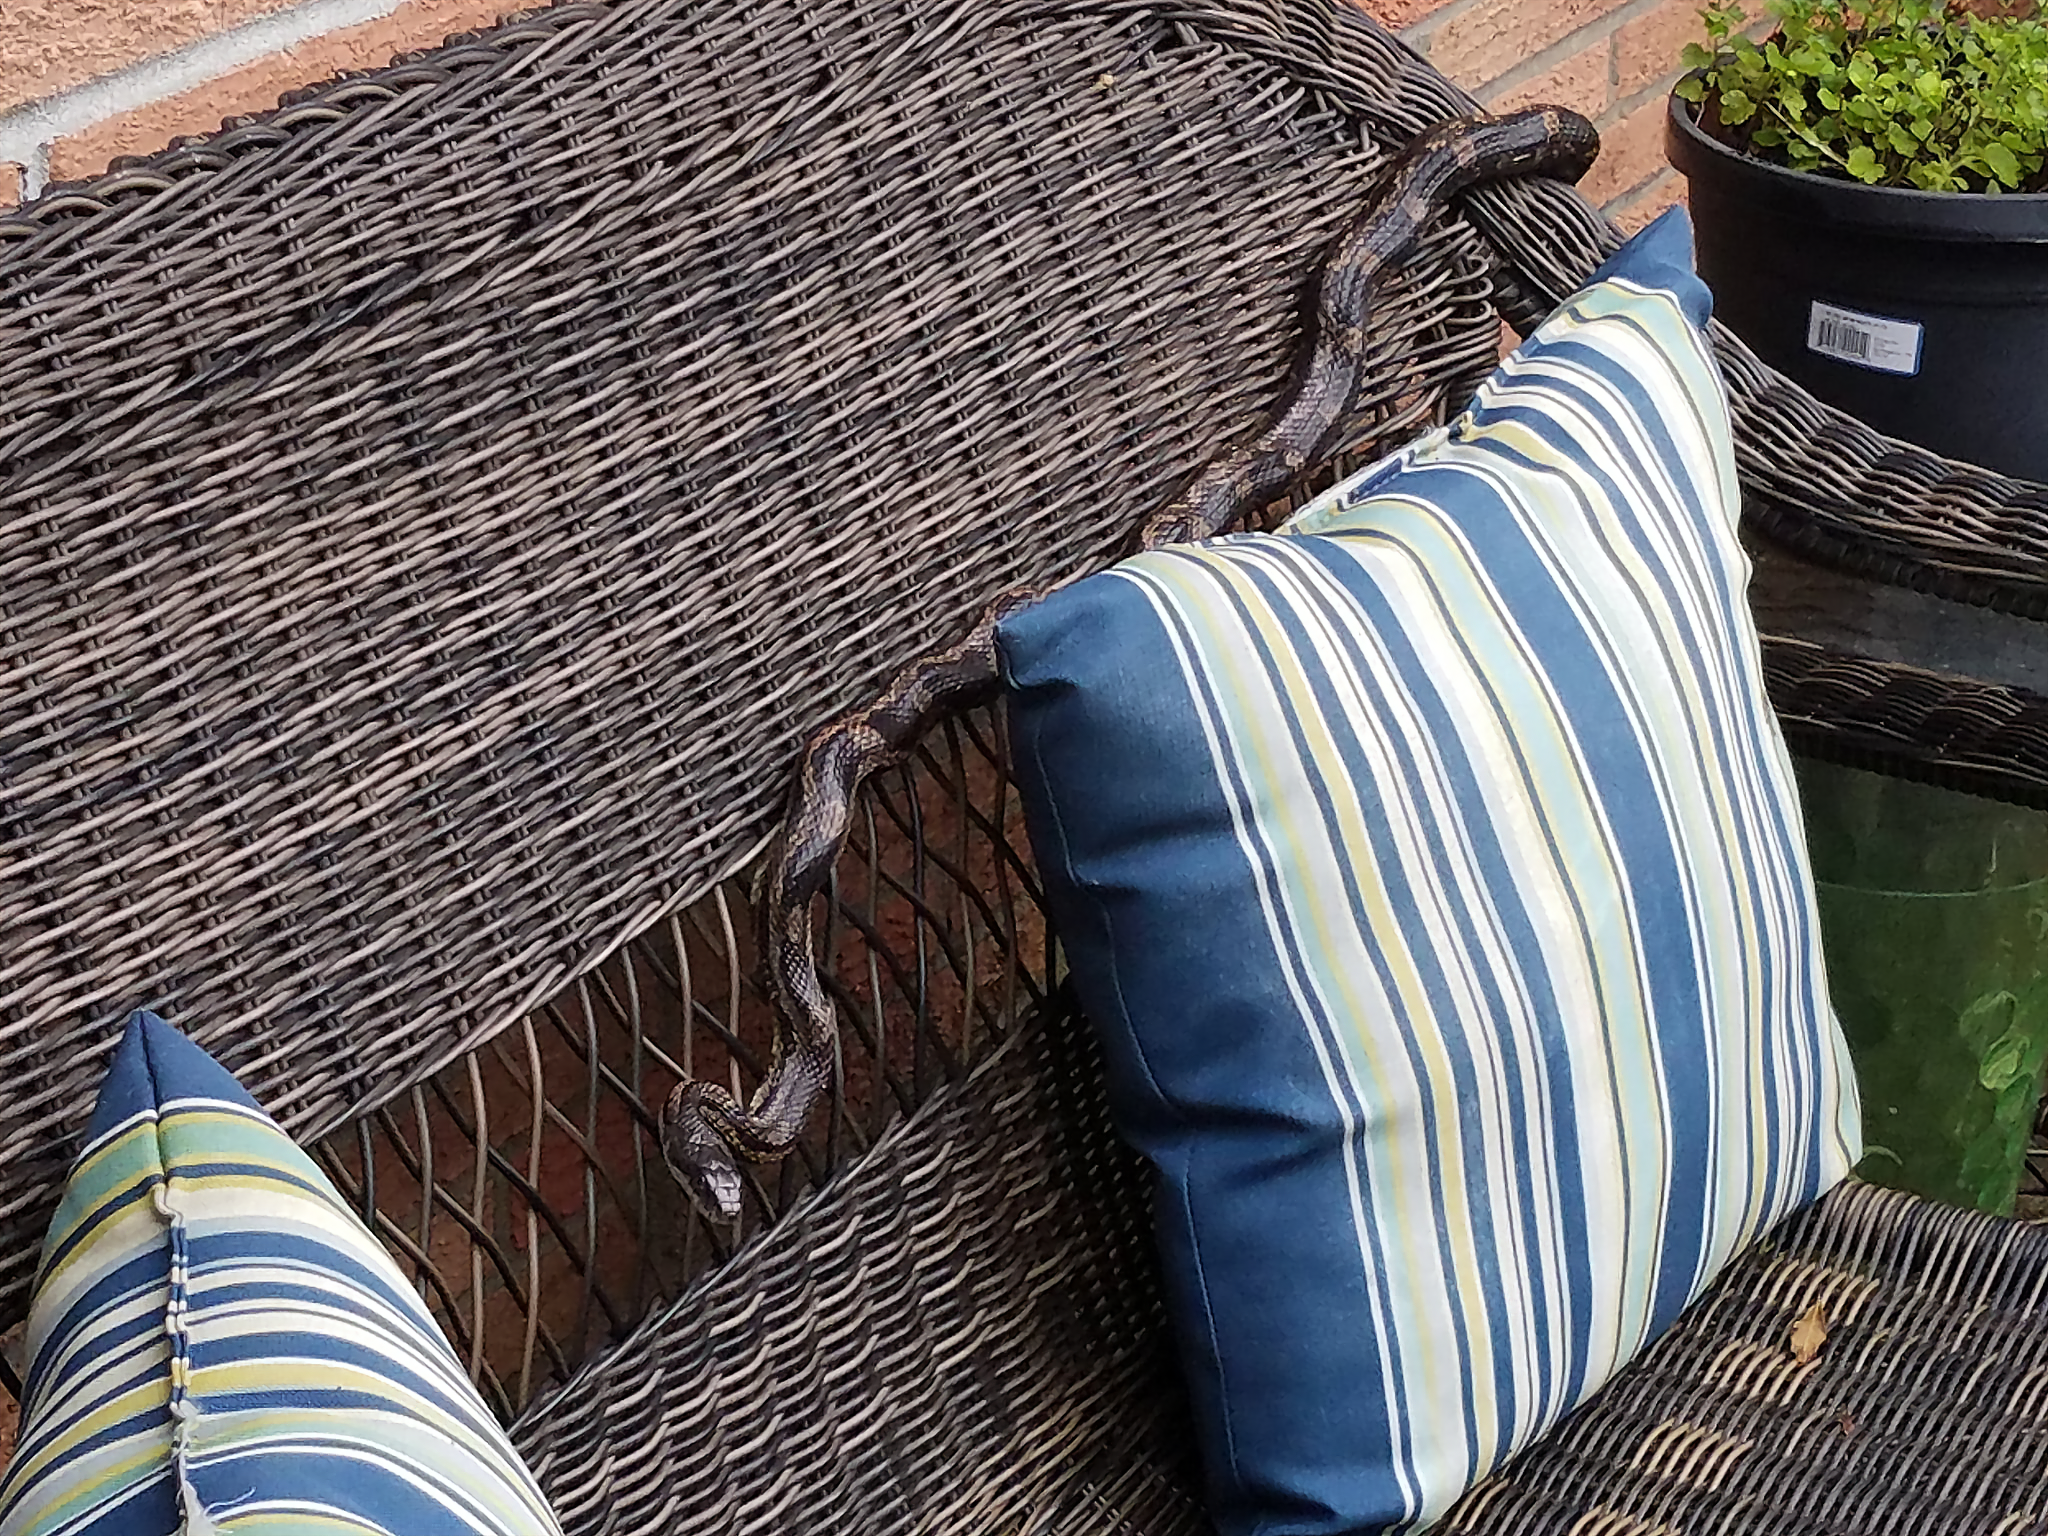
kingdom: Animalia
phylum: Chordata
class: Squamata
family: Colubridae
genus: Pantherophis
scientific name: Pantherophis spiloides
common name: Gray rat snake
